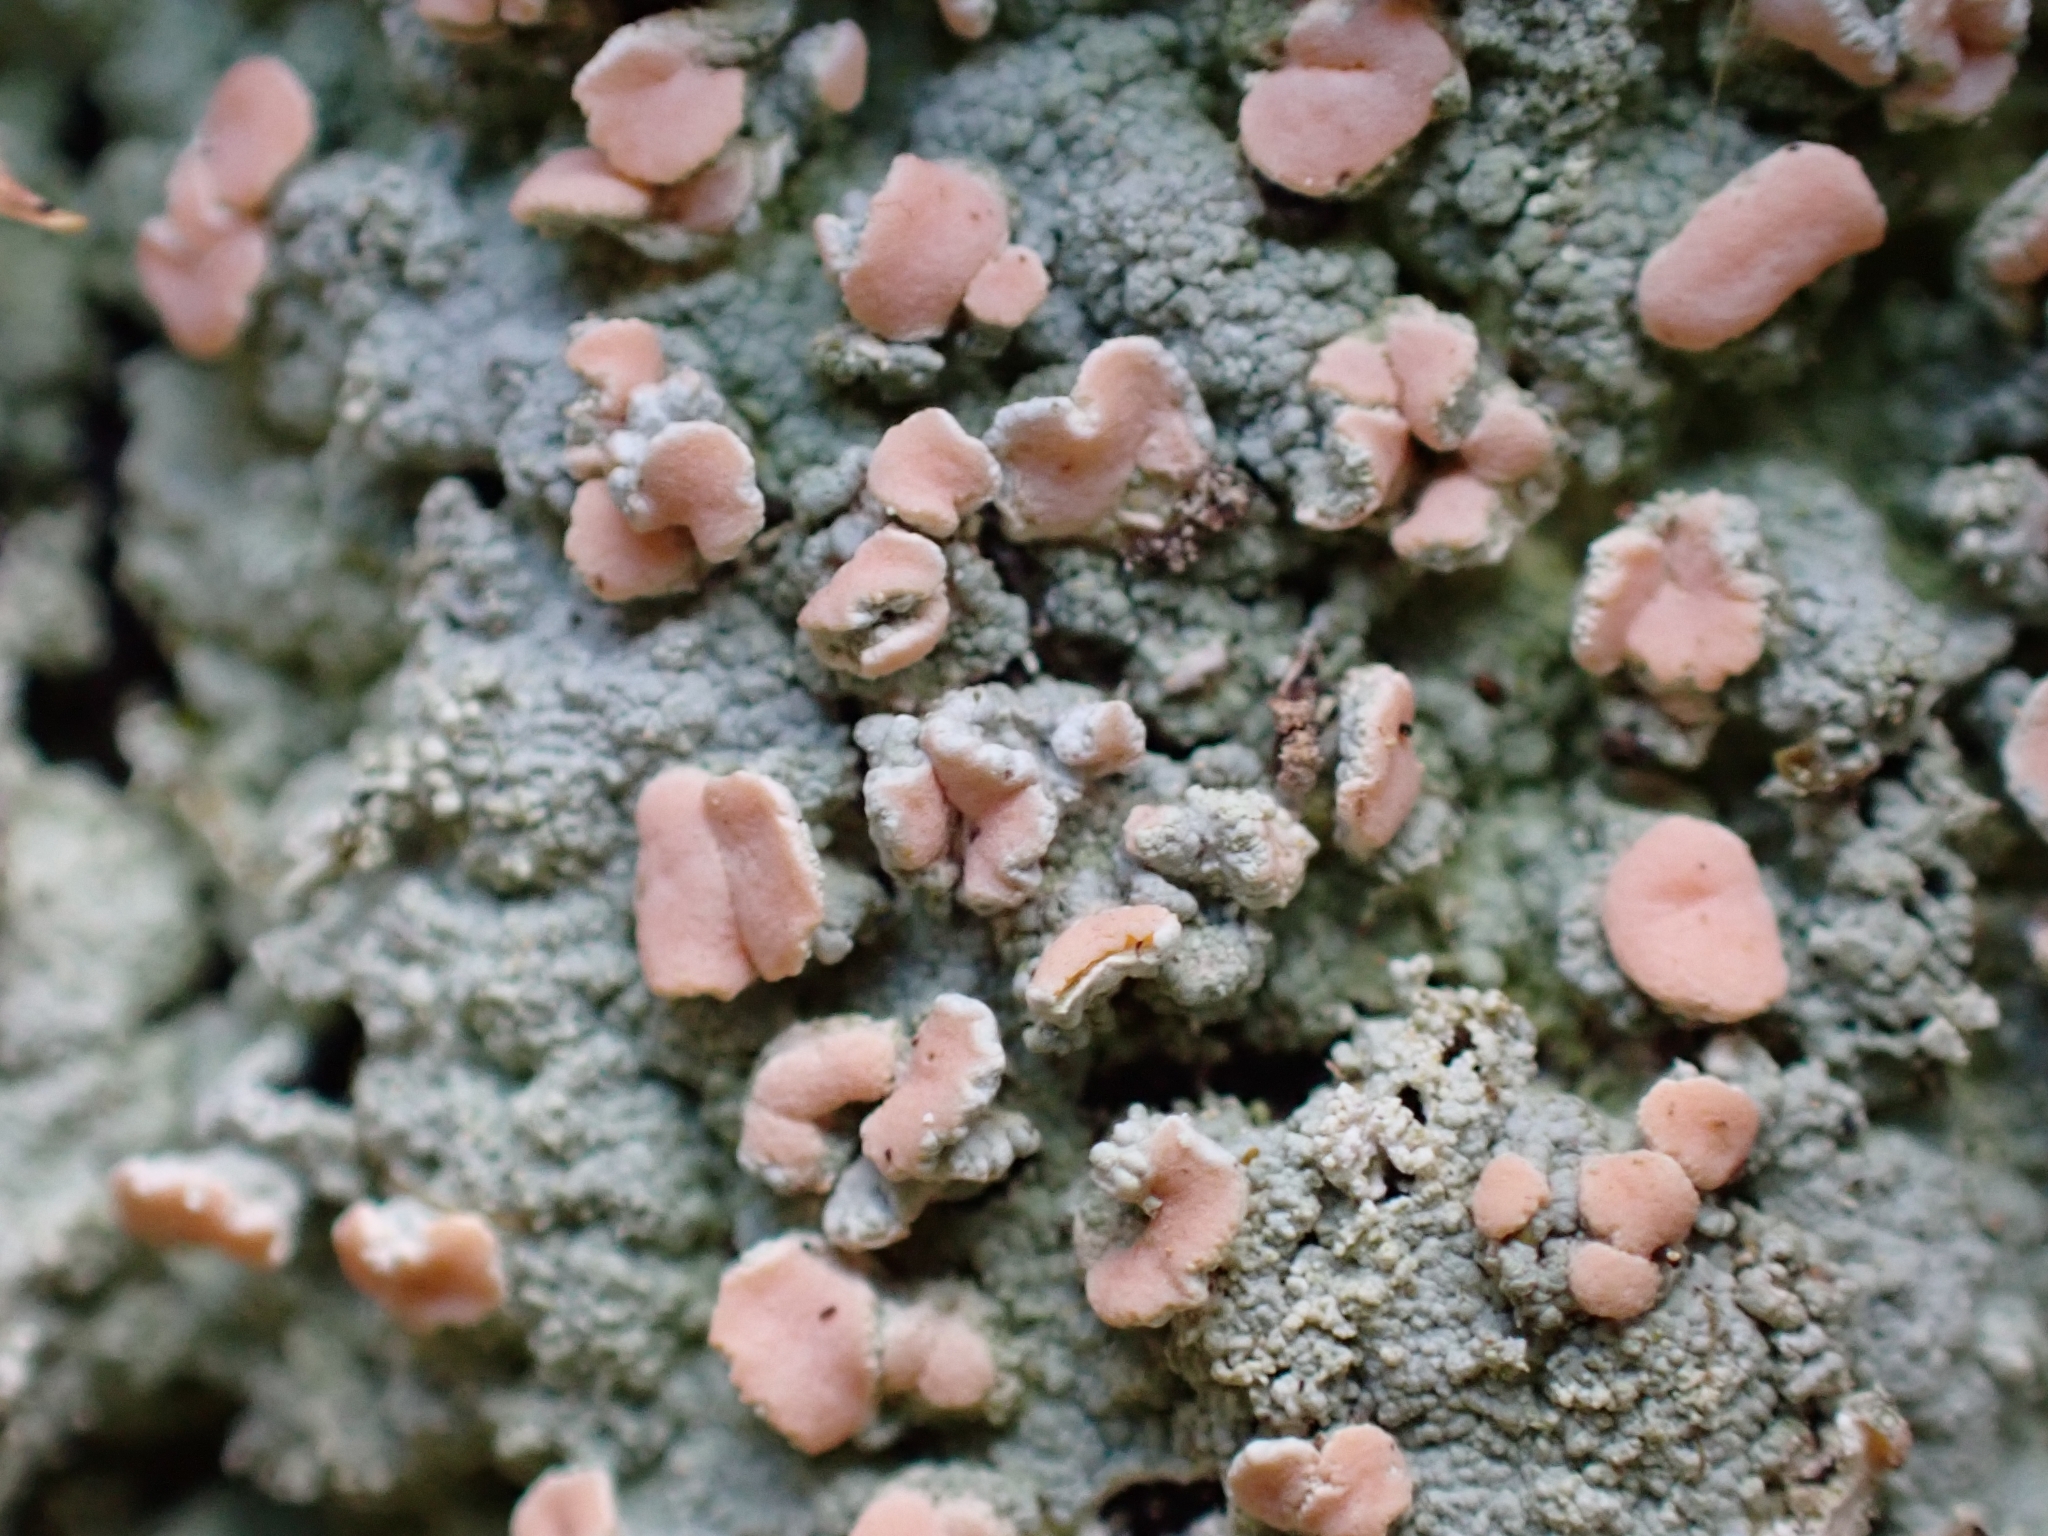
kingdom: Fungi
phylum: Ascomycota
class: Lecanoromycetes
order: Pertusariales
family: Icmadophilaceae
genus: Icmadophila
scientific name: Icmadophila ericetorum
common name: Candy lichen
